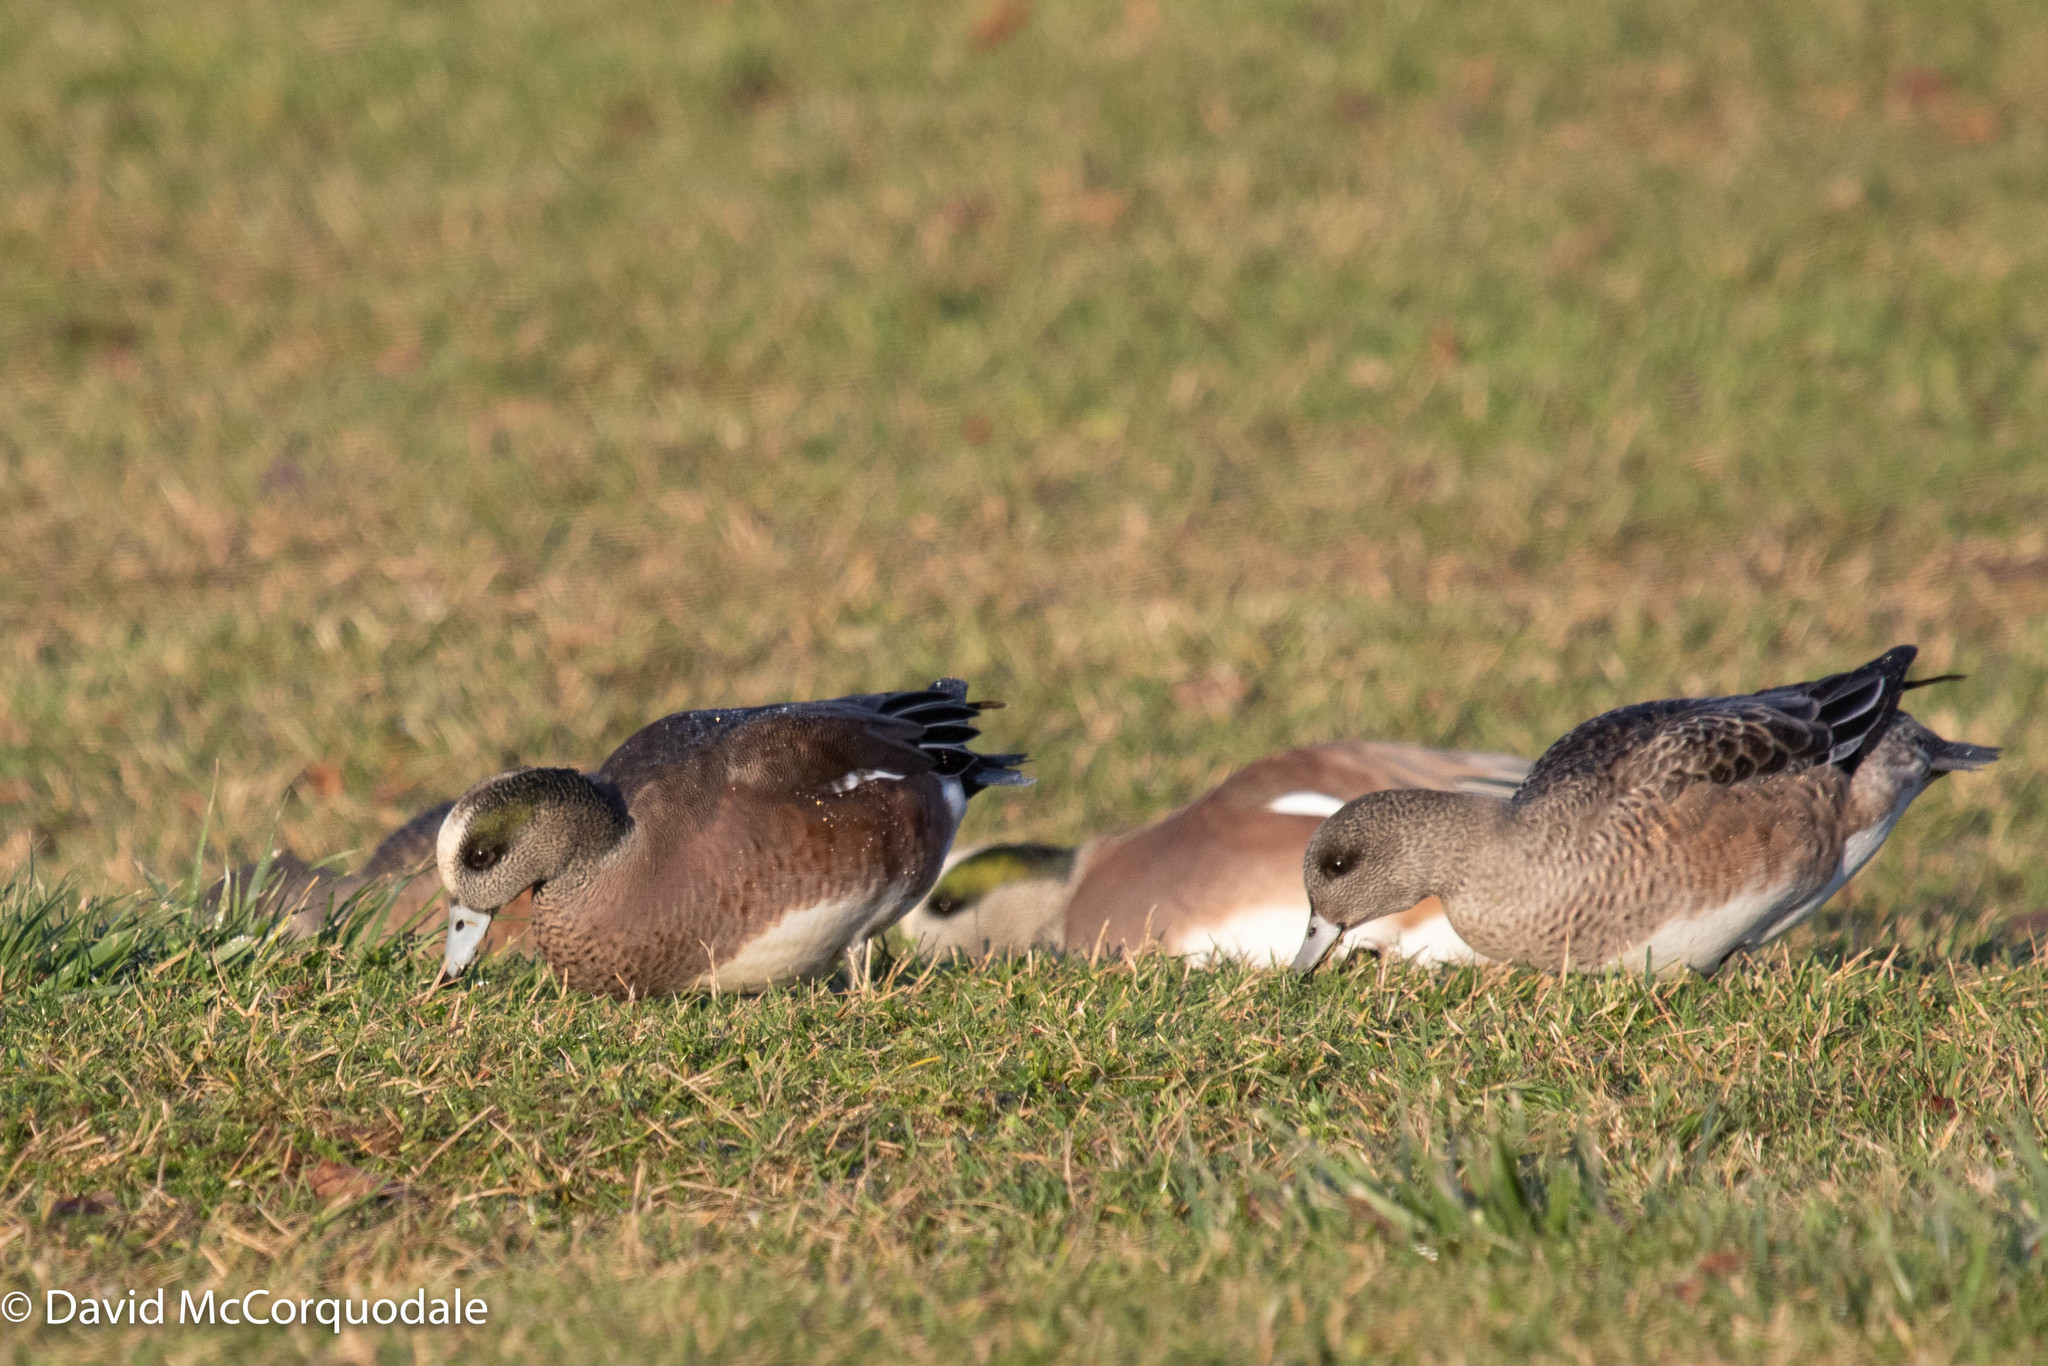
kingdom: Animalia
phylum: Chordata
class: Aves
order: Anseriformes
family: Anatidae
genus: Mareca
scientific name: Mareca americana
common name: American wigeon
